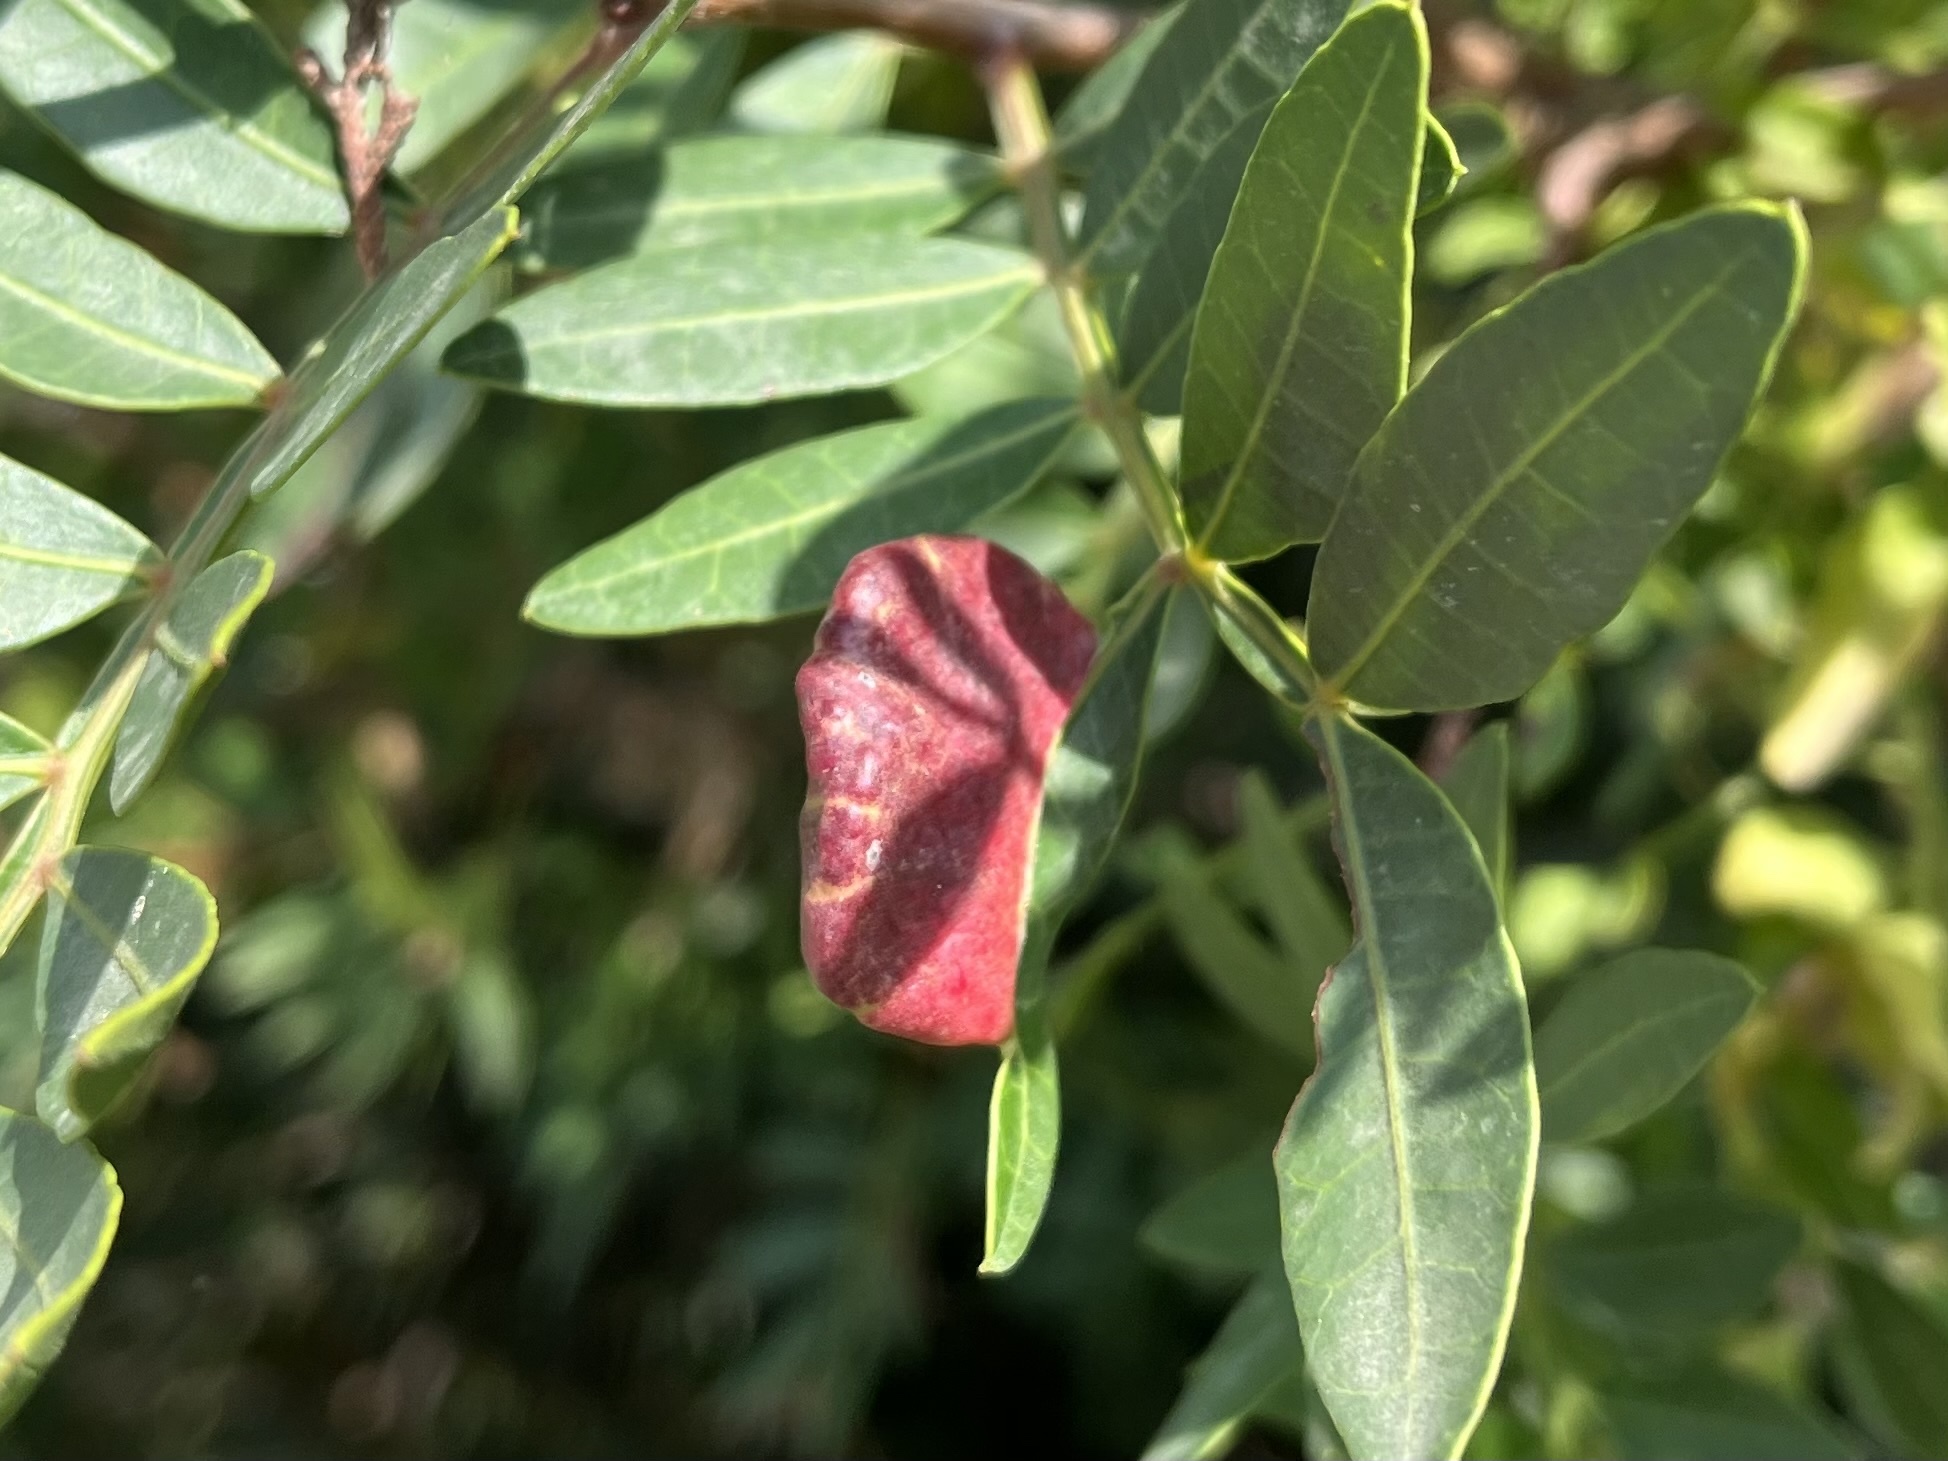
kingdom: Animalia
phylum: Arthropoda
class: Insecta
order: Hemiptera
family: Aphididae
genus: Aploneura
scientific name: Aploneura lentisci
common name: Mealy grass root aphid
